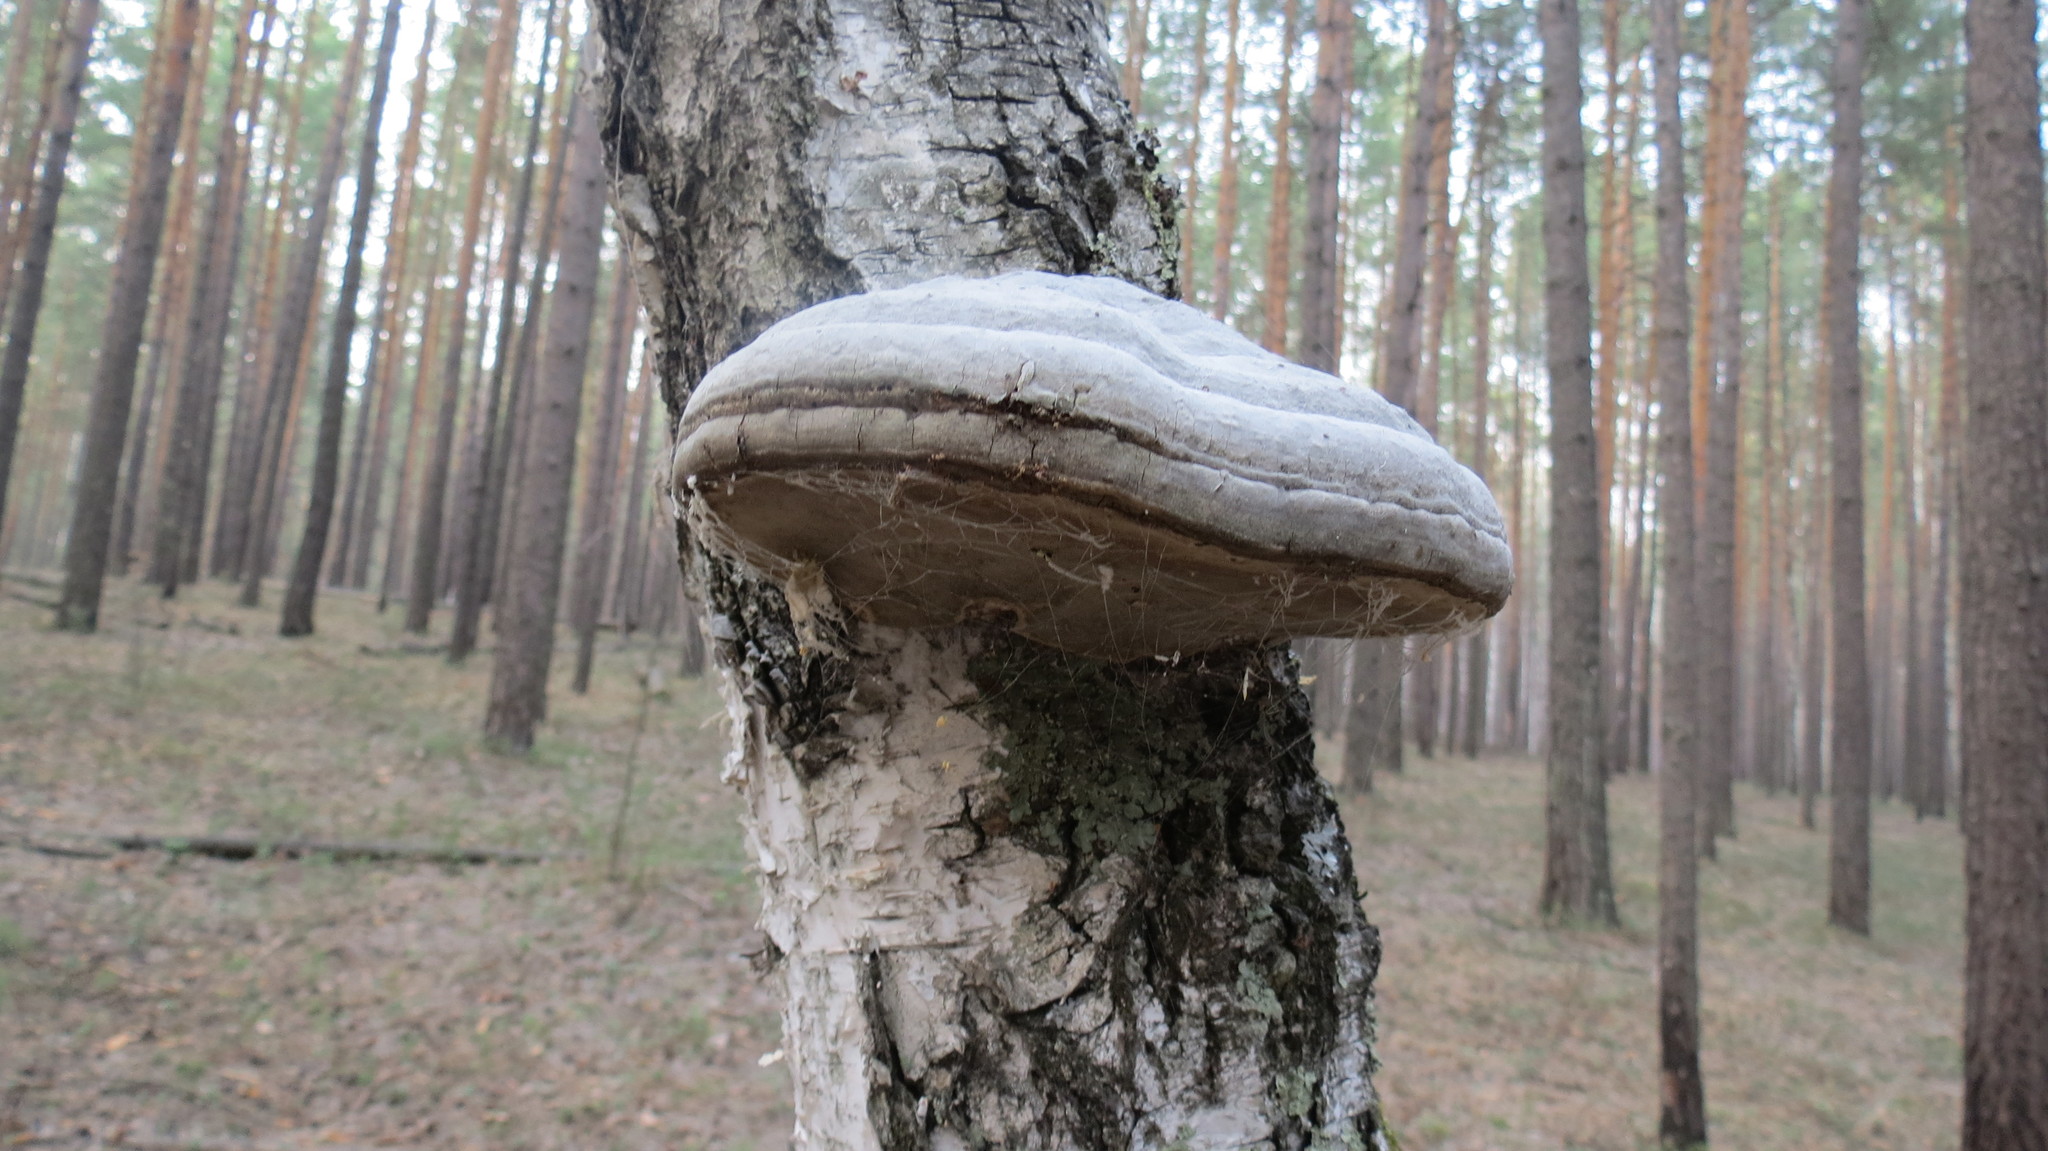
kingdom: Fungi
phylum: Basidiomycota
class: Agaricomycetes
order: Polyporales
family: Polyporaceae
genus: Fomes
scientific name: Fomes fomentarius
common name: Hoof fungus
